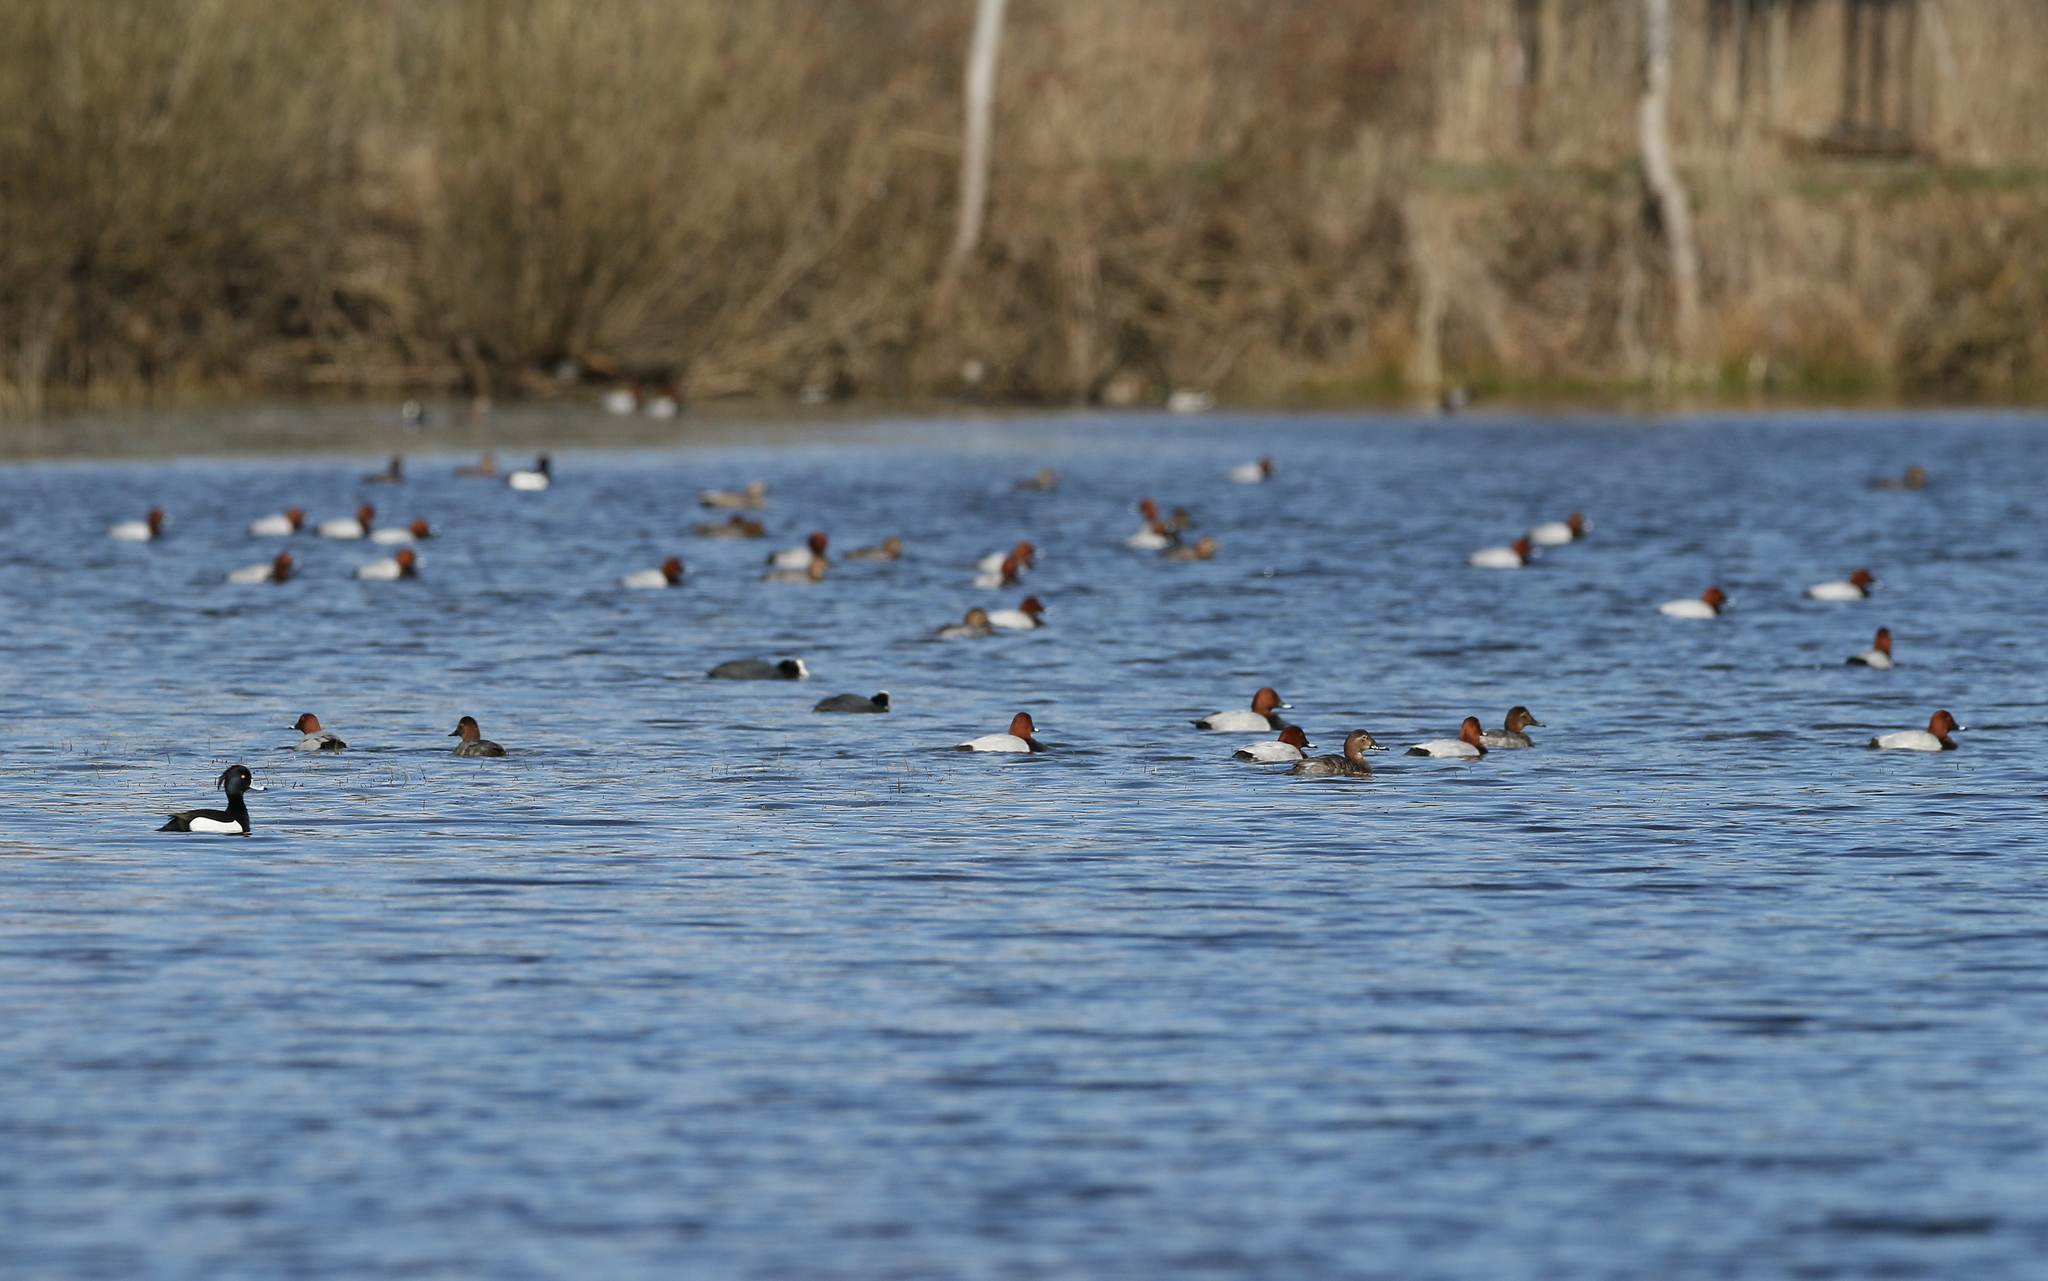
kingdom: Animalia
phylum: Chordata
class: Aves
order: Anseriformes
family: Anatidae
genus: Aythya
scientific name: Aythya ferina
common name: Common pochard
